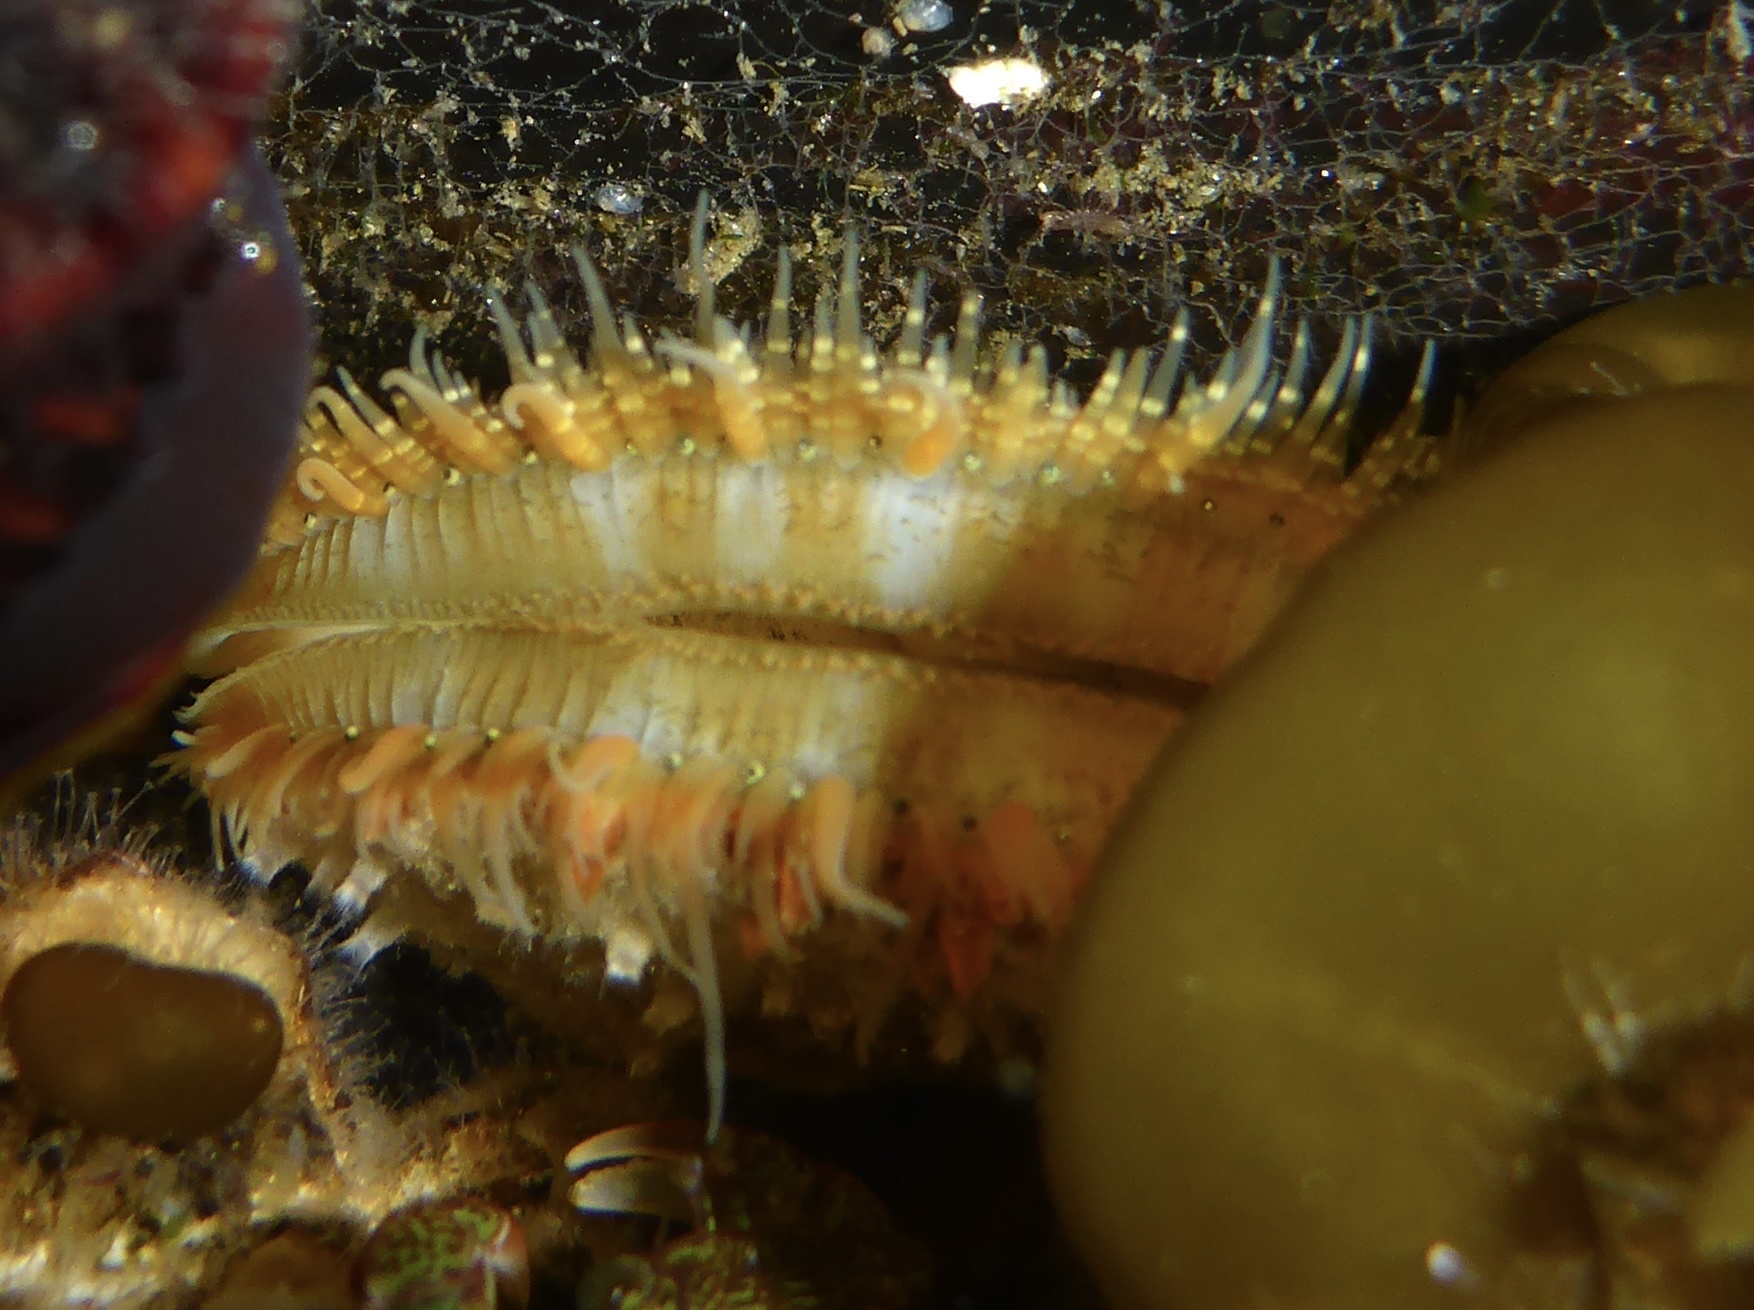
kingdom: Animalia
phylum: Mollusca
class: Bivalvia
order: Pectinida
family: Pectinidae
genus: Crassadoma
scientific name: Crassadoma gigantea
